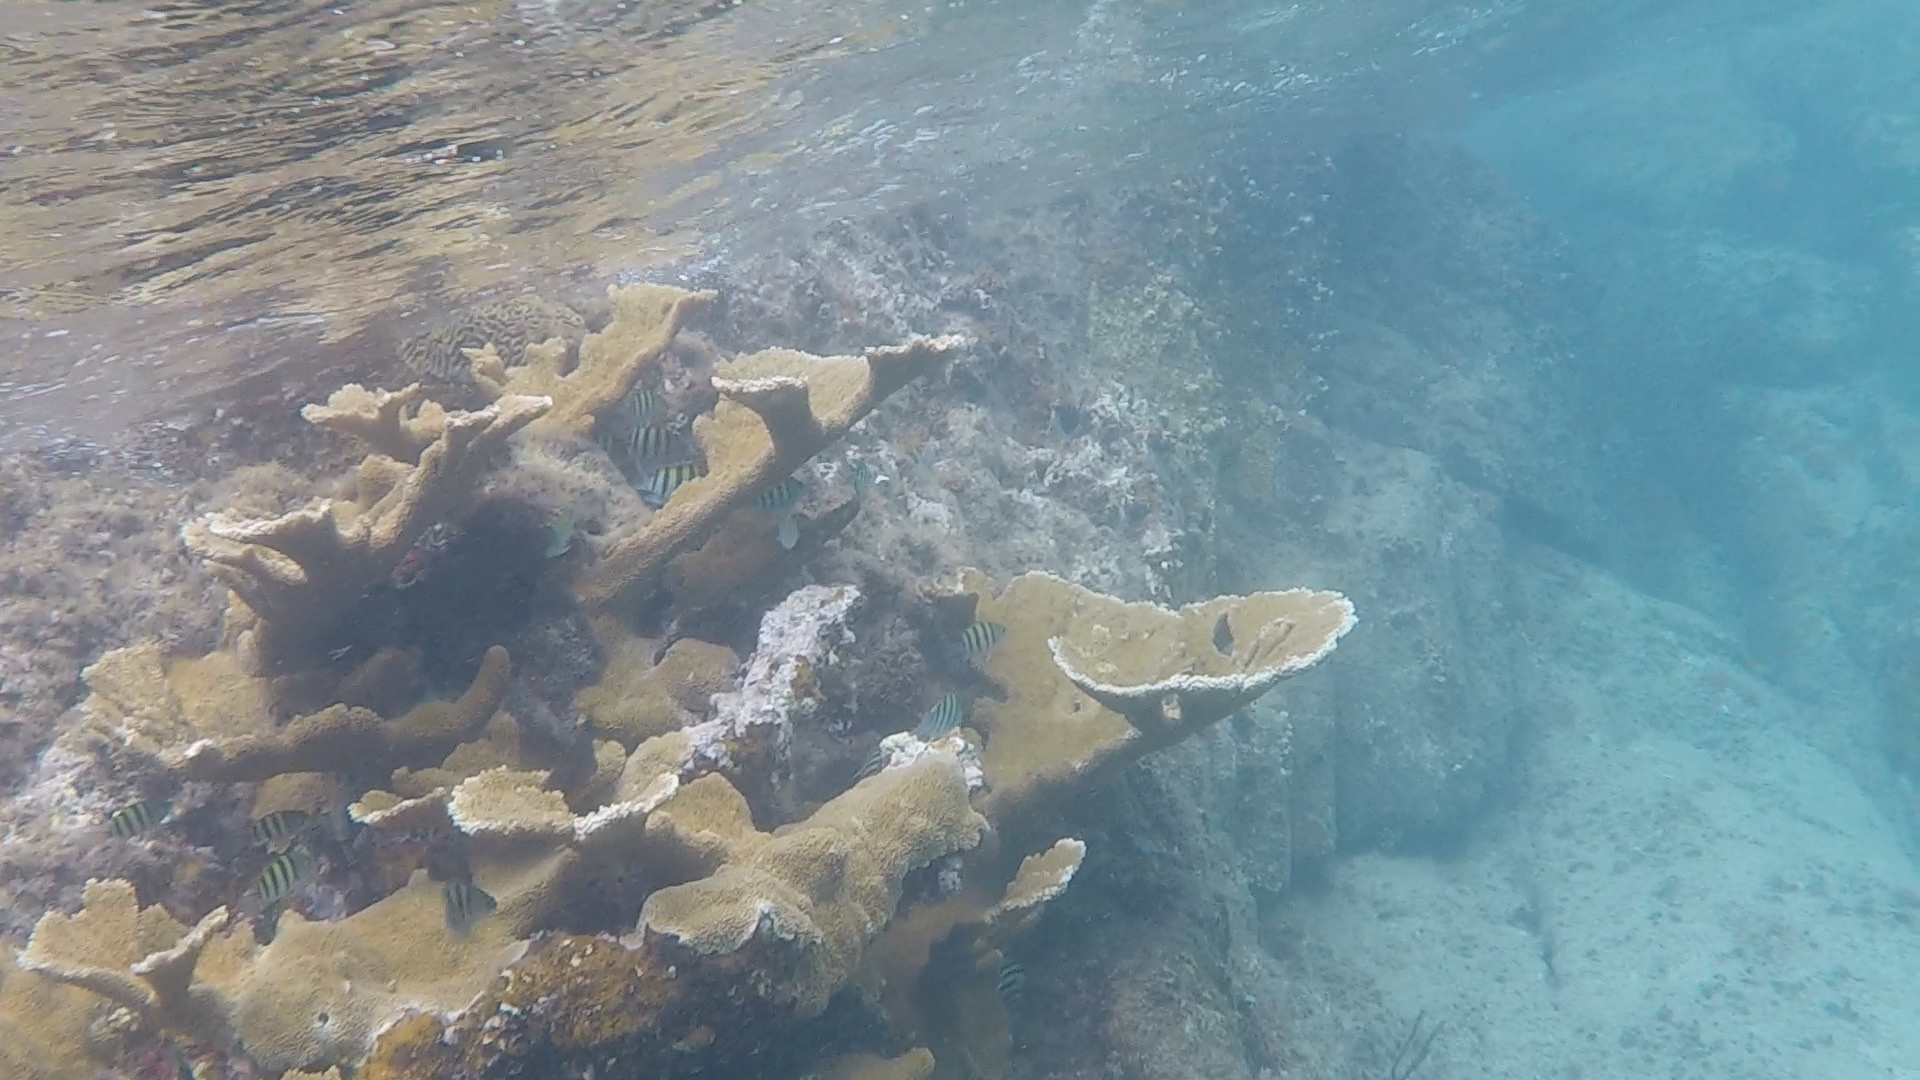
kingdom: Animalia
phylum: Cnidaria
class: Anthozoa
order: Scleractinia
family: Acroporidae
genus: Acropora
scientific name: Acropora palmata
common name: Elkhorn coral
